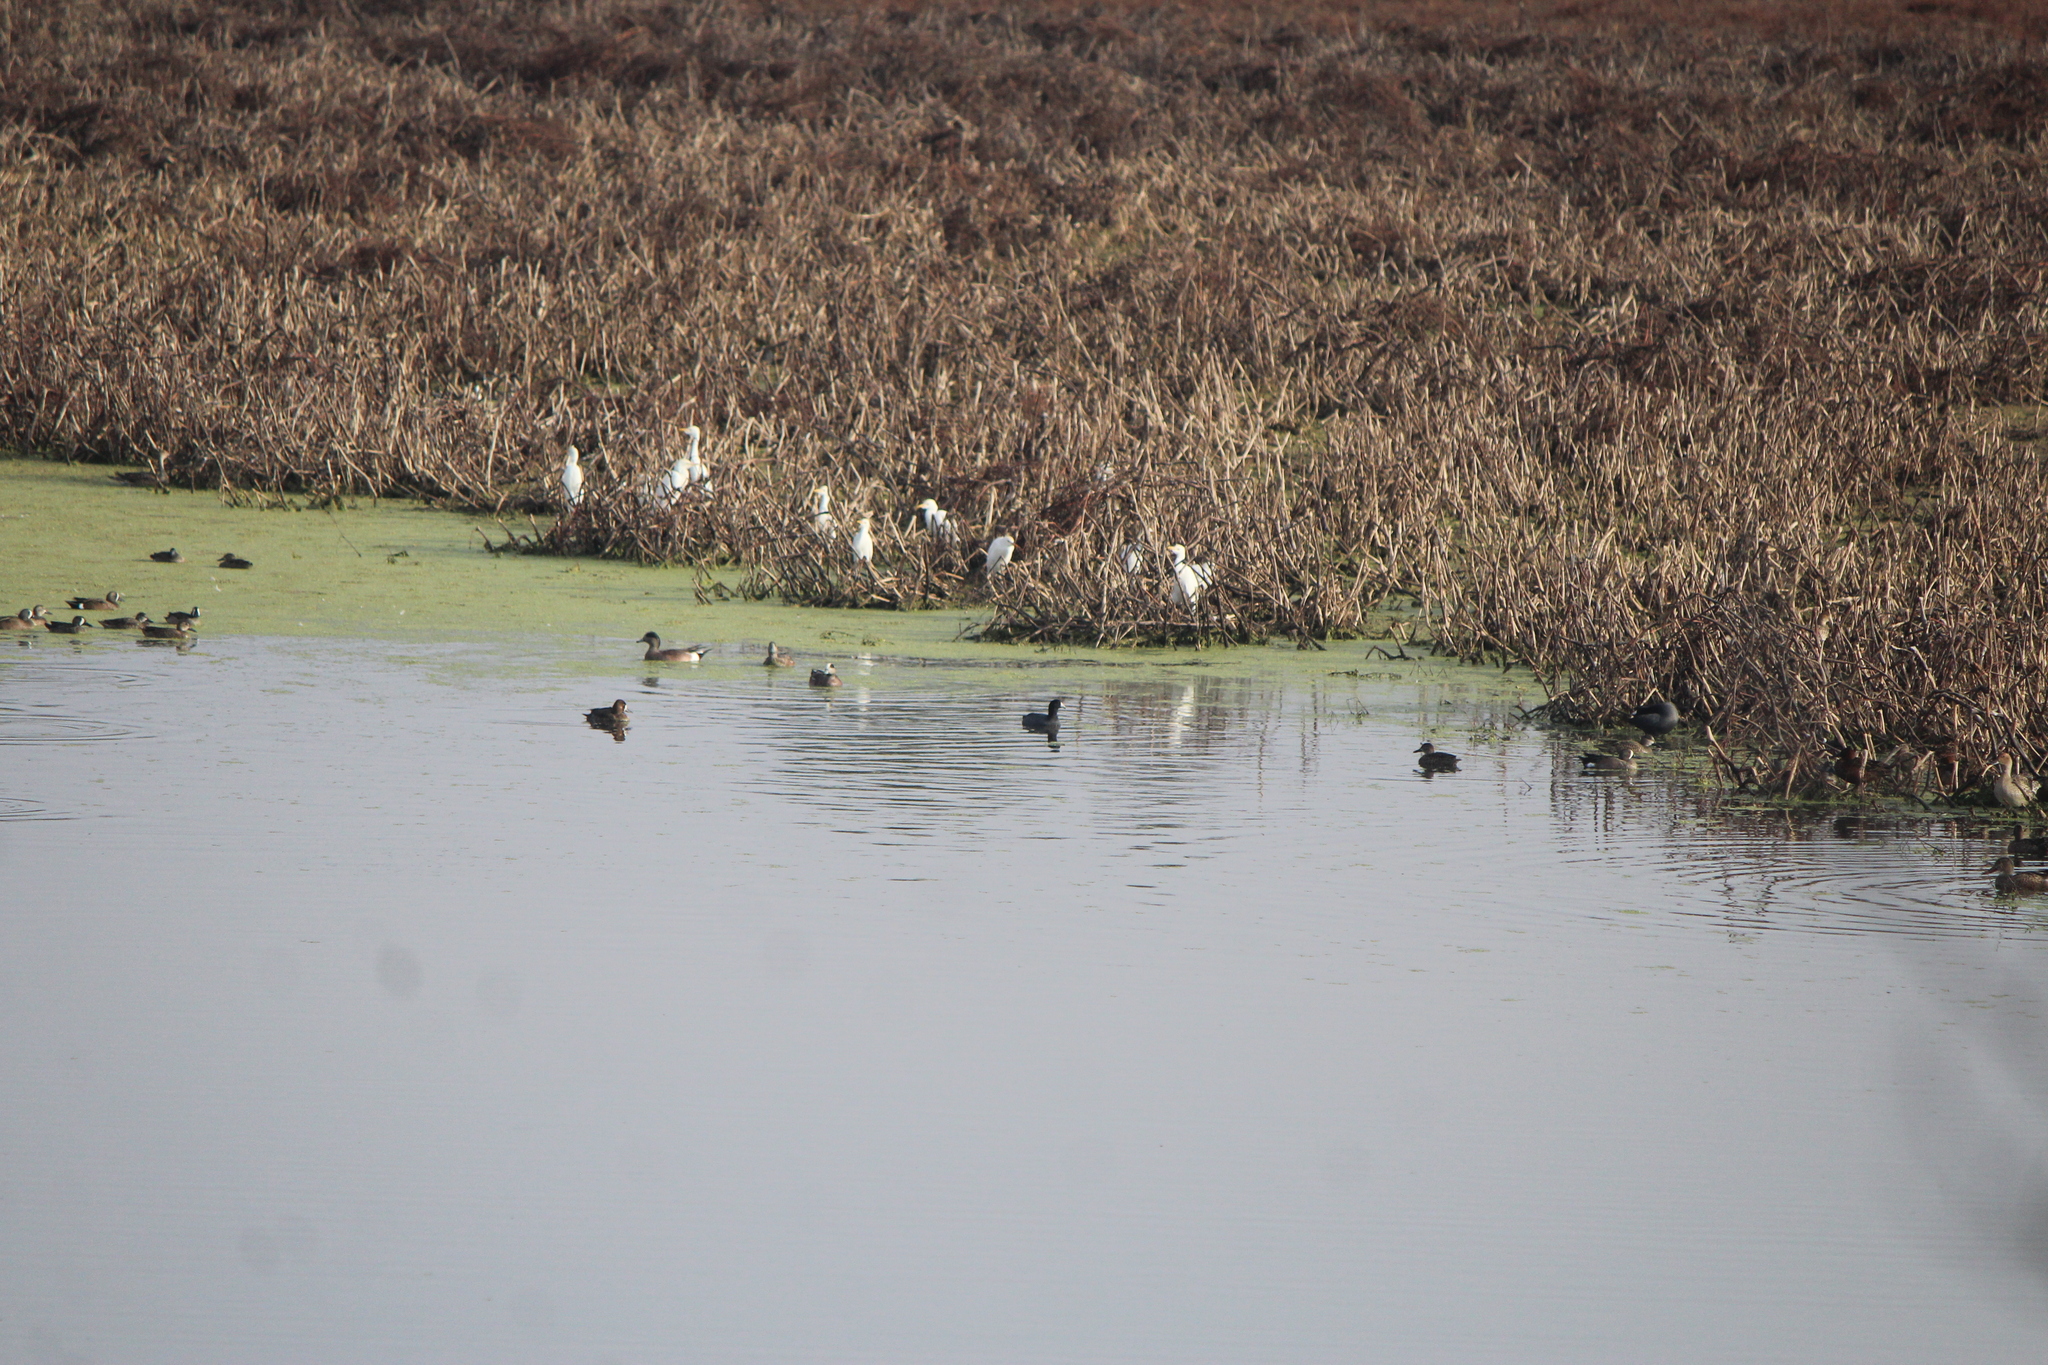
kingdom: Animalia
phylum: Chordata
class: Aves
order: Gruiformes
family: Rallidae
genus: Fulica
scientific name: Fulica americana
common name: American coot
